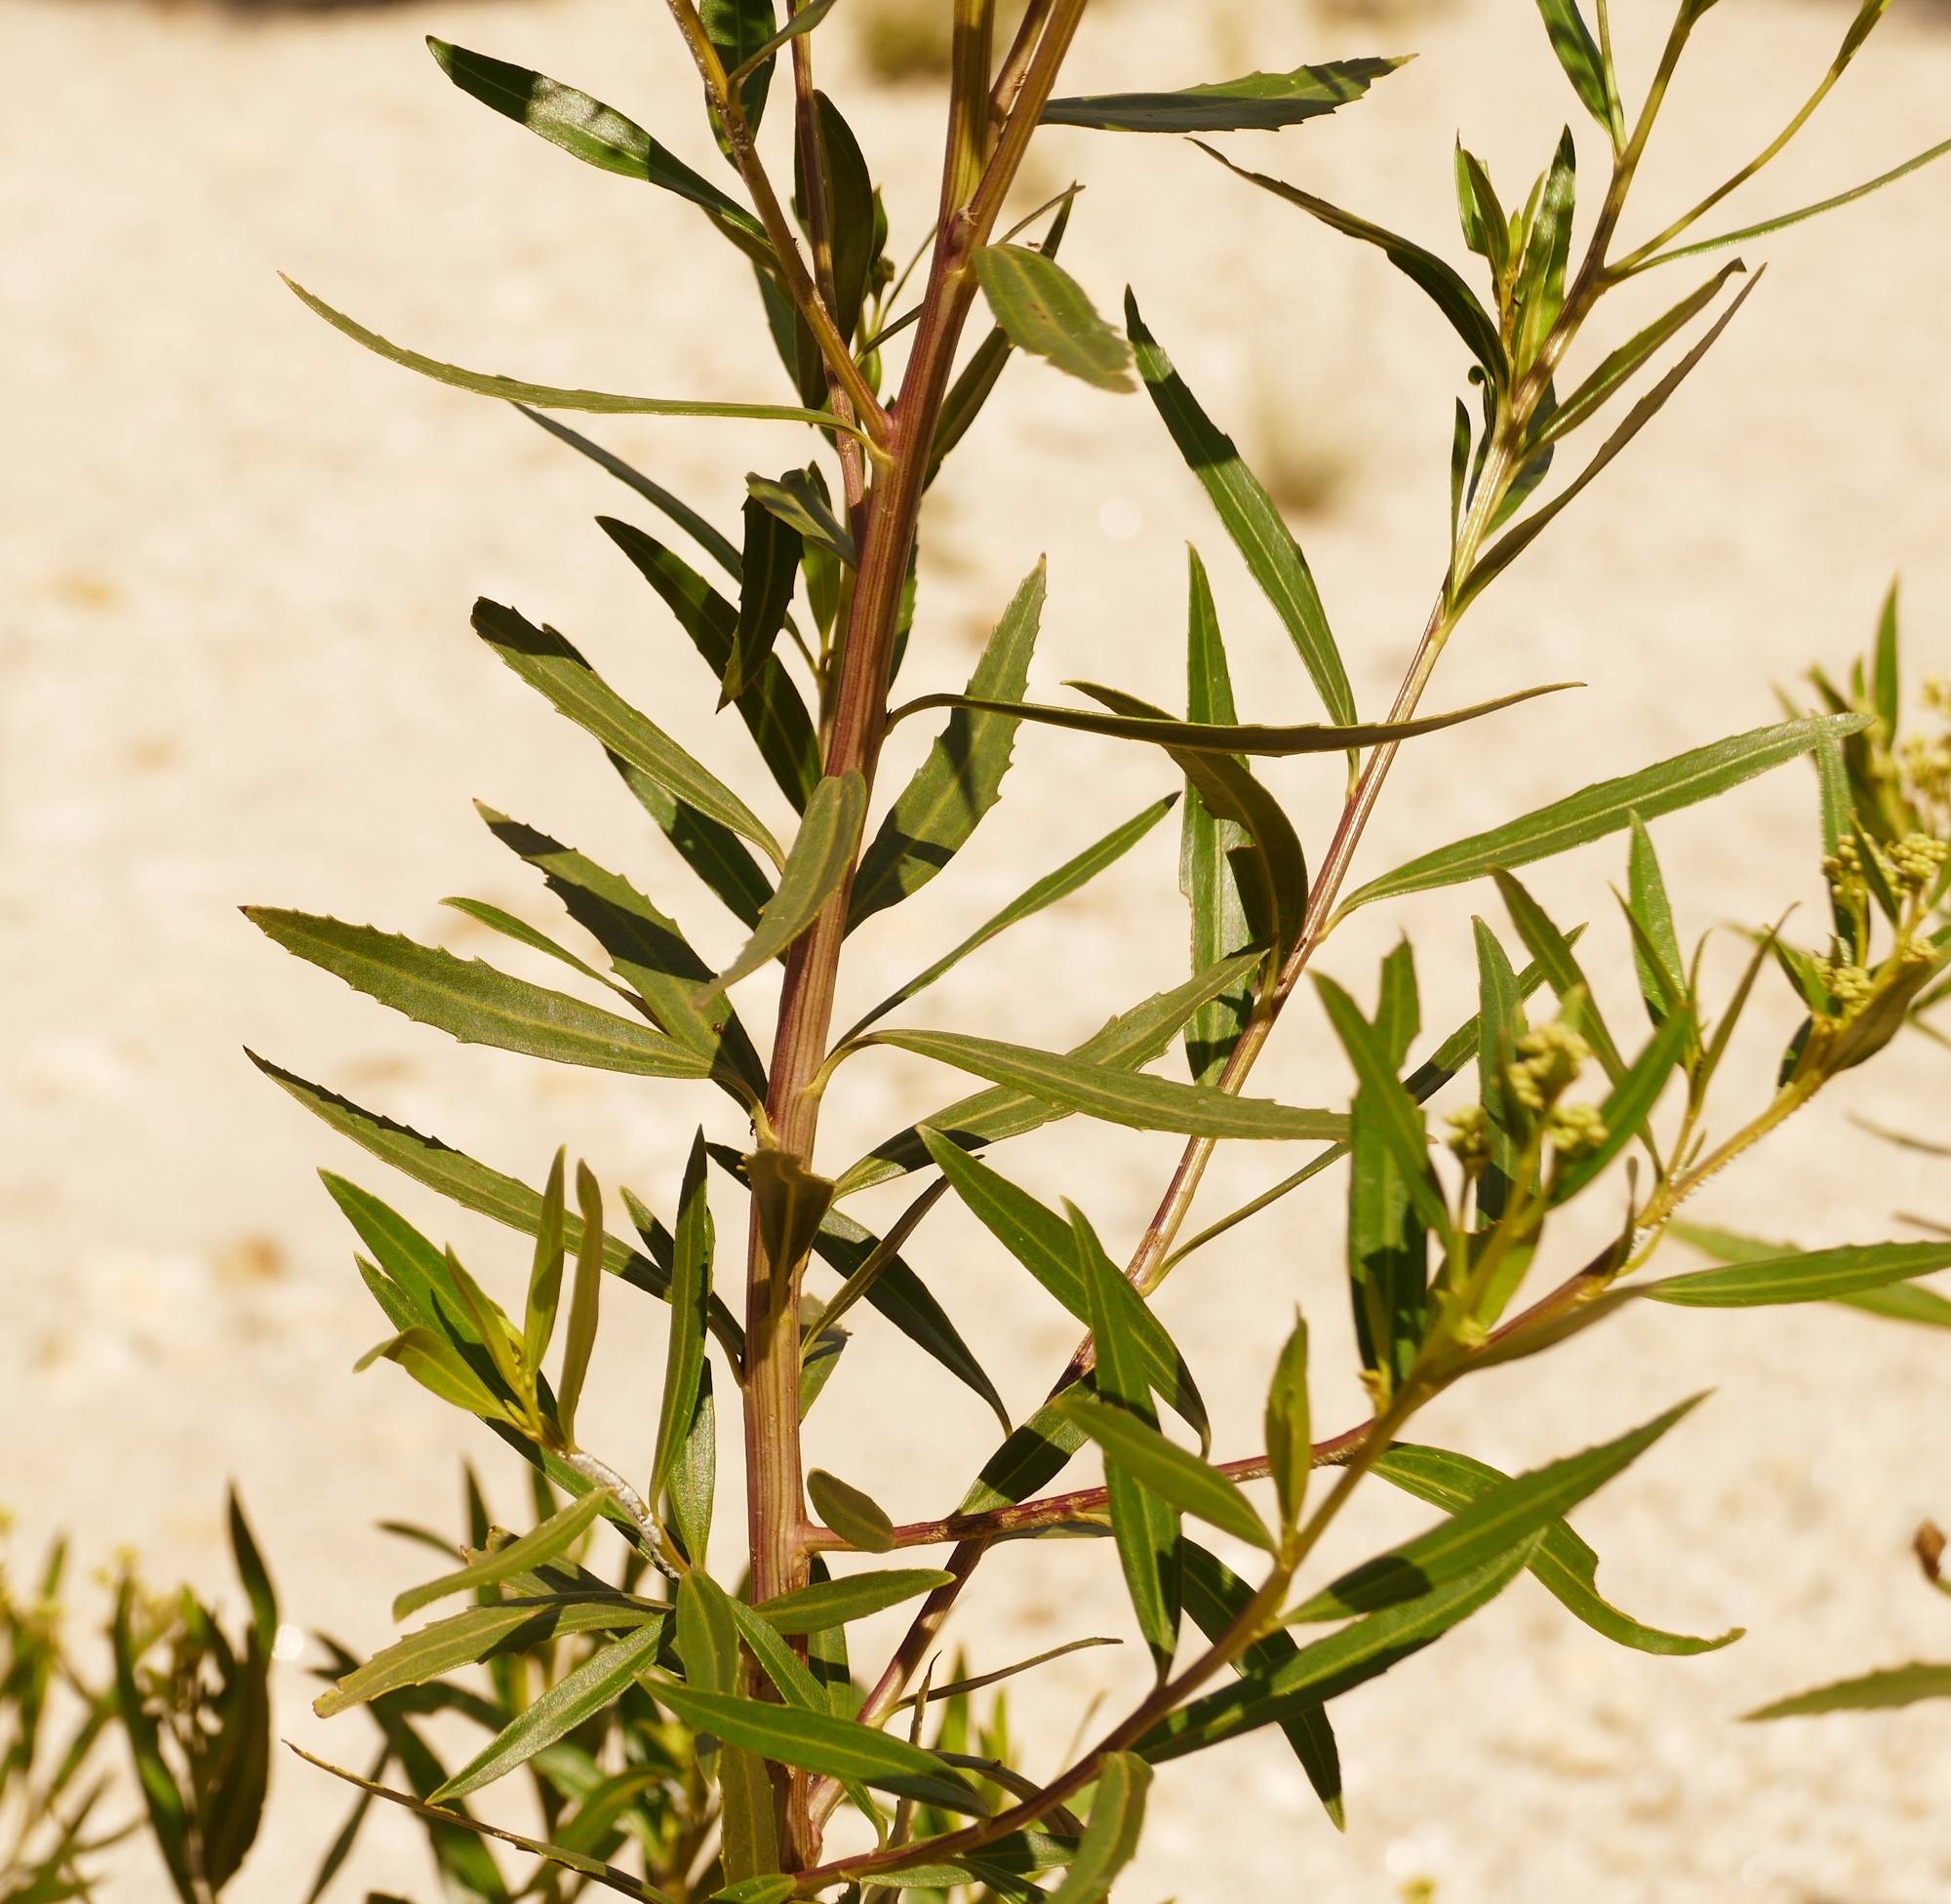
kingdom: Plantae
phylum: Tracheophyta
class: Magnoliopsida
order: Asterales
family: Asteraceae
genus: Baccharis
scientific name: Baccharis salicifolia
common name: Sticky baccharis
